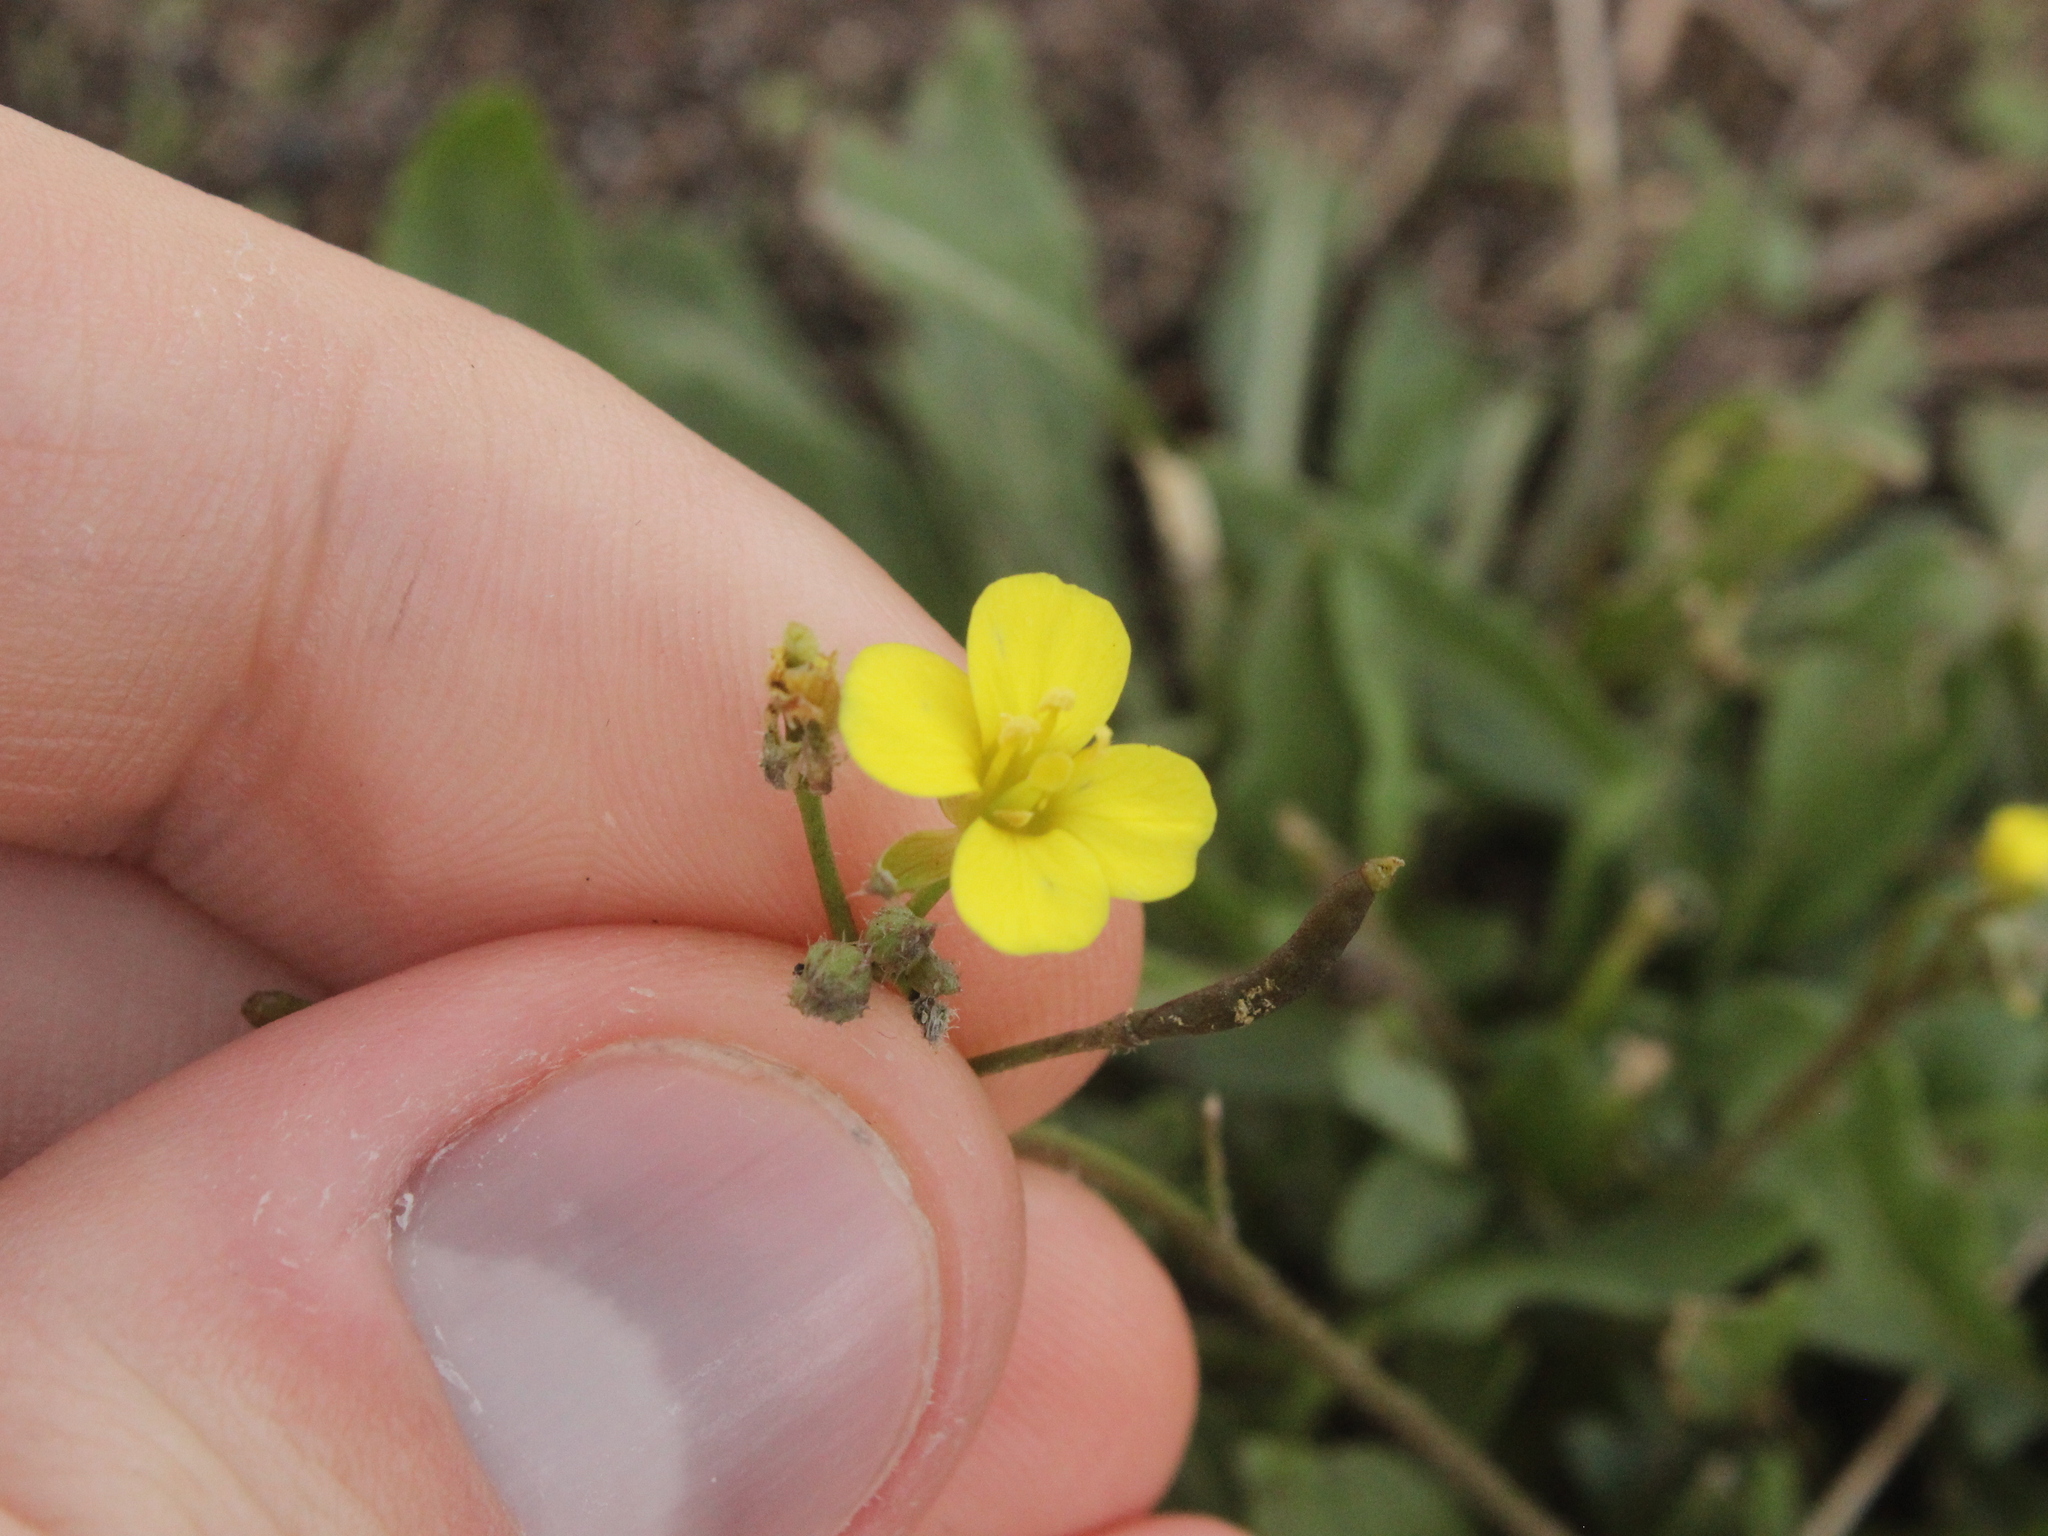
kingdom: Plantae
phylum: Tracheophyta
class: Magnoliopsida
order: Brassicales
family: Brassicaceae
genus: Diplotaxis
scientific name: Diplotaxis muralis
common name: Annual wall-rocket
